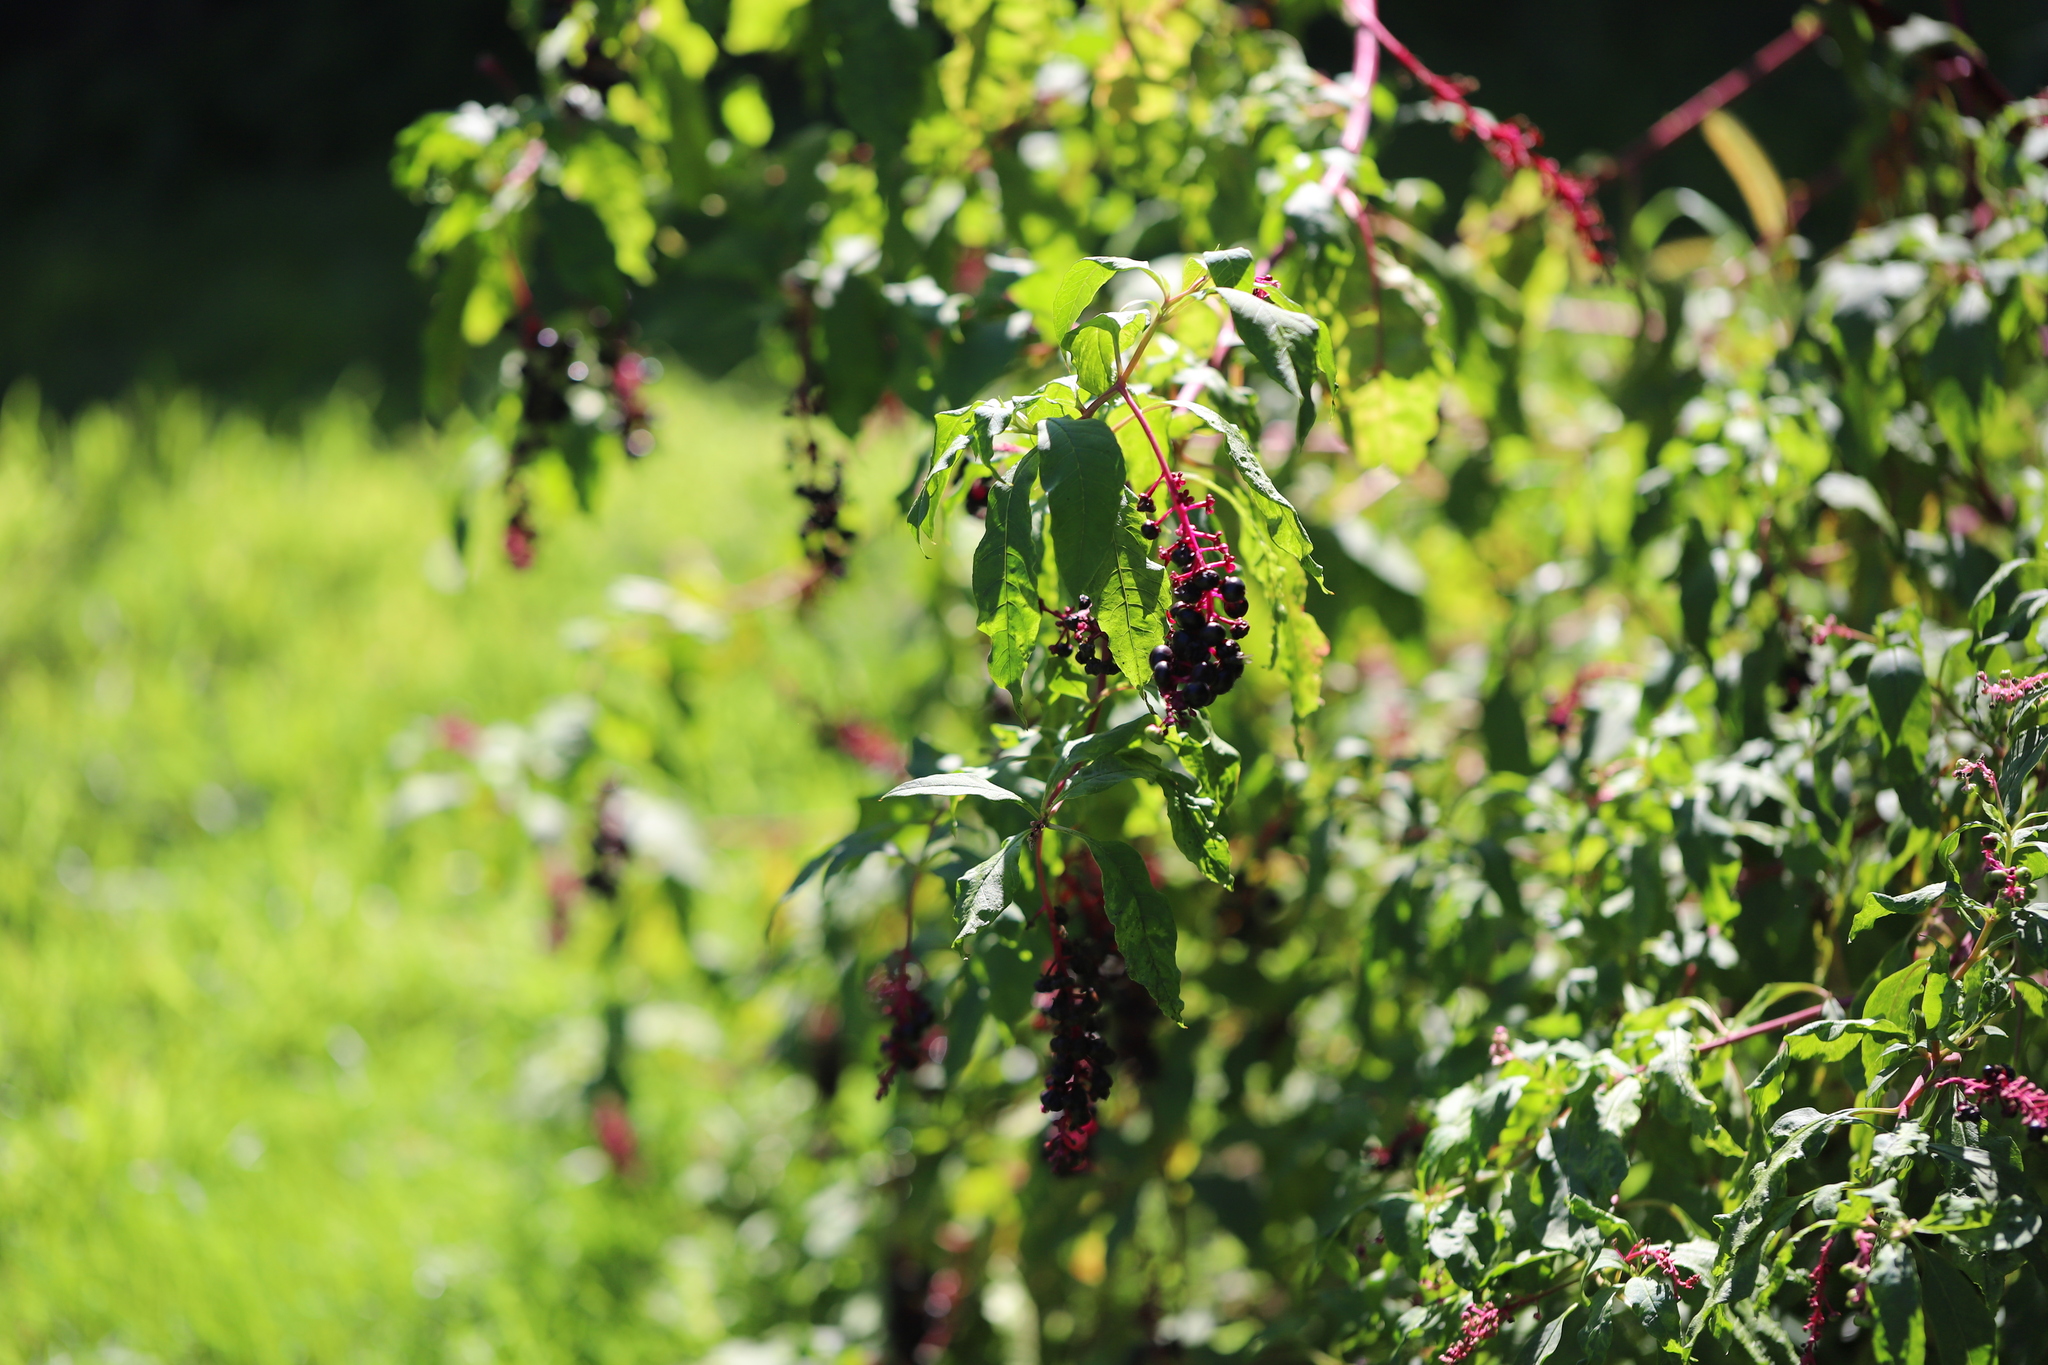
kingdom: Plantae
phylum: Tracheophyta
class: Magnoliopsida
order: Caryophyllales
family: Phytolaccaceae
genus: Phytolacca
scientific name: Phytolacca americana
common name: American pokeweed
